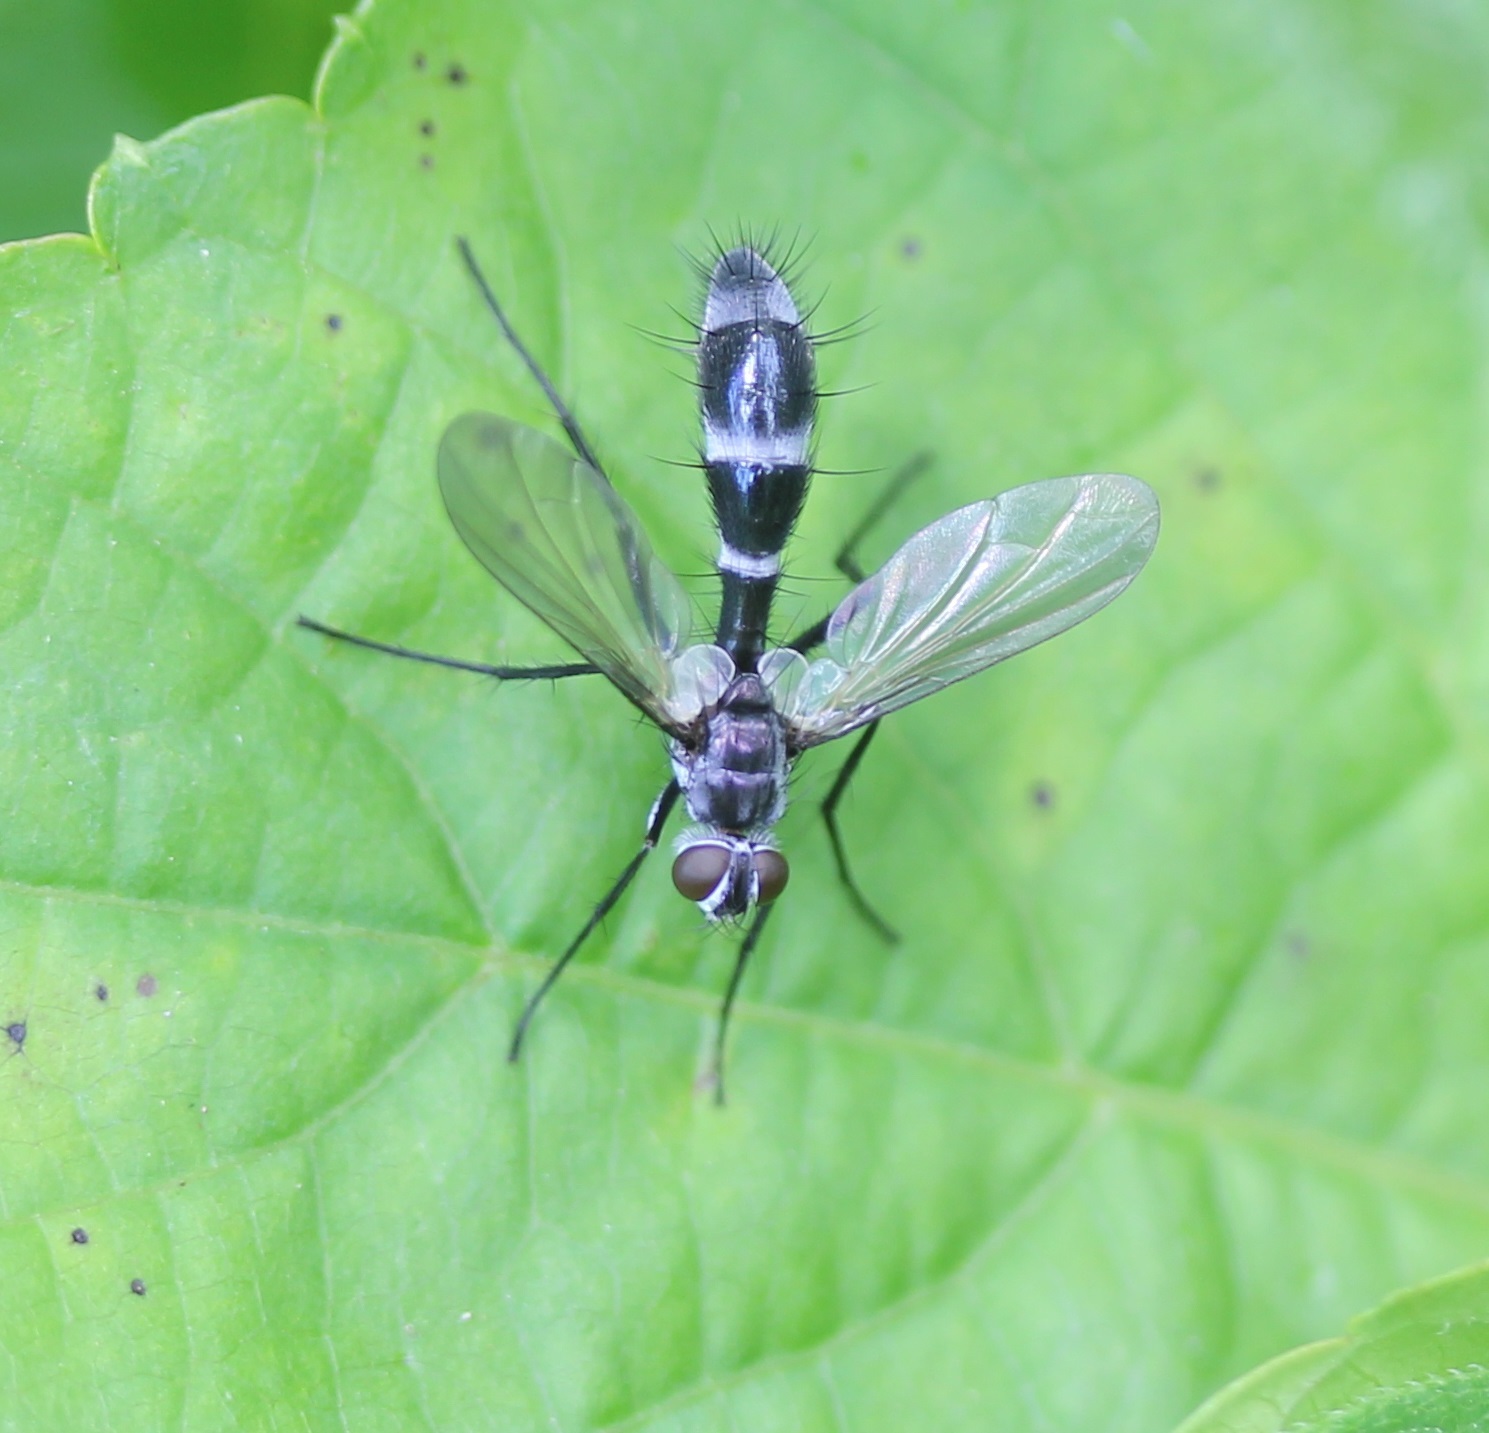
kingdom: Animalia
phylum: Arthropoda
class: Insecta
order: Diptera
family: Tachinidae
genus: Cordyligaster
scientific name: Cordyligaster septentrionalis
